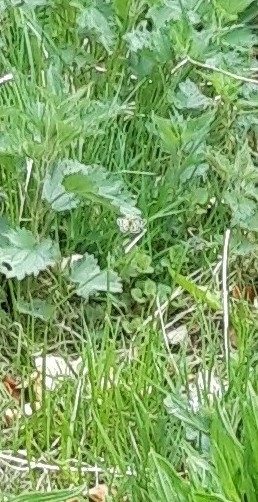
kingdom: Animalia
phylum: Arthropoda
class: Insecta
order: Lepidoptera
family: Geometridae
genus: Chiasmia
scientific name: Chiasmia clathrata
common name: Latticed heath
